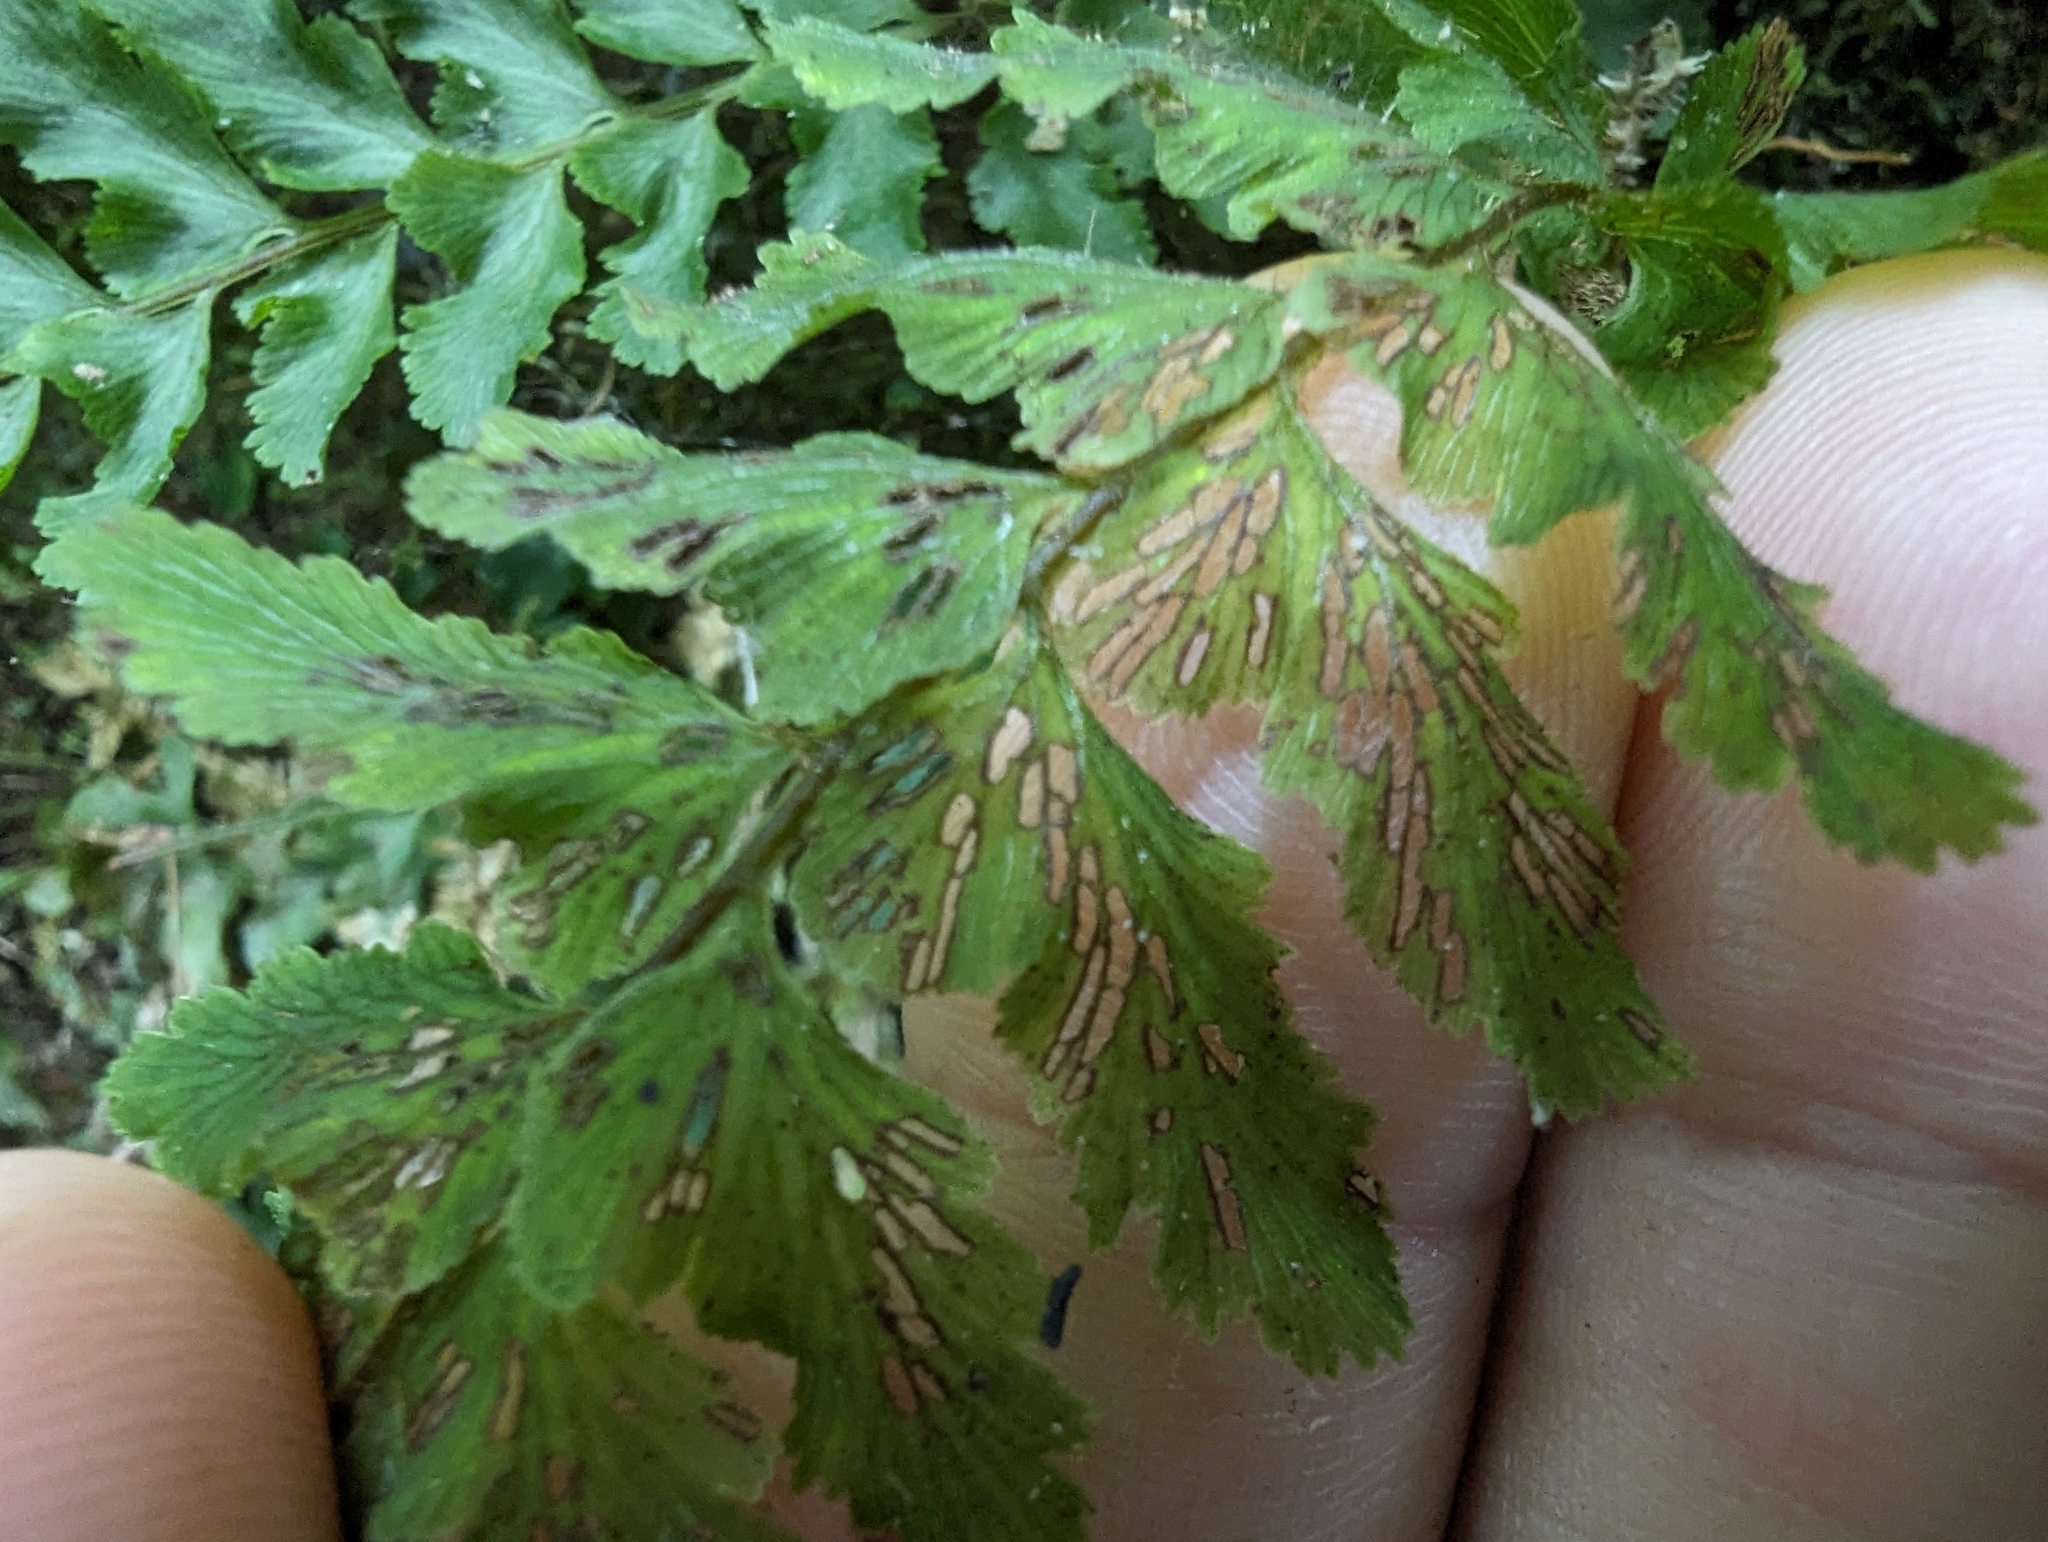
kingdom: Plantae
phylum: Tracheophyta
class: Polypodiopsida
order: Hymenophyllales
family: Hymenophyllaceae
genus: Vandenboschia
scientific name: Vandenboschia auriculata
